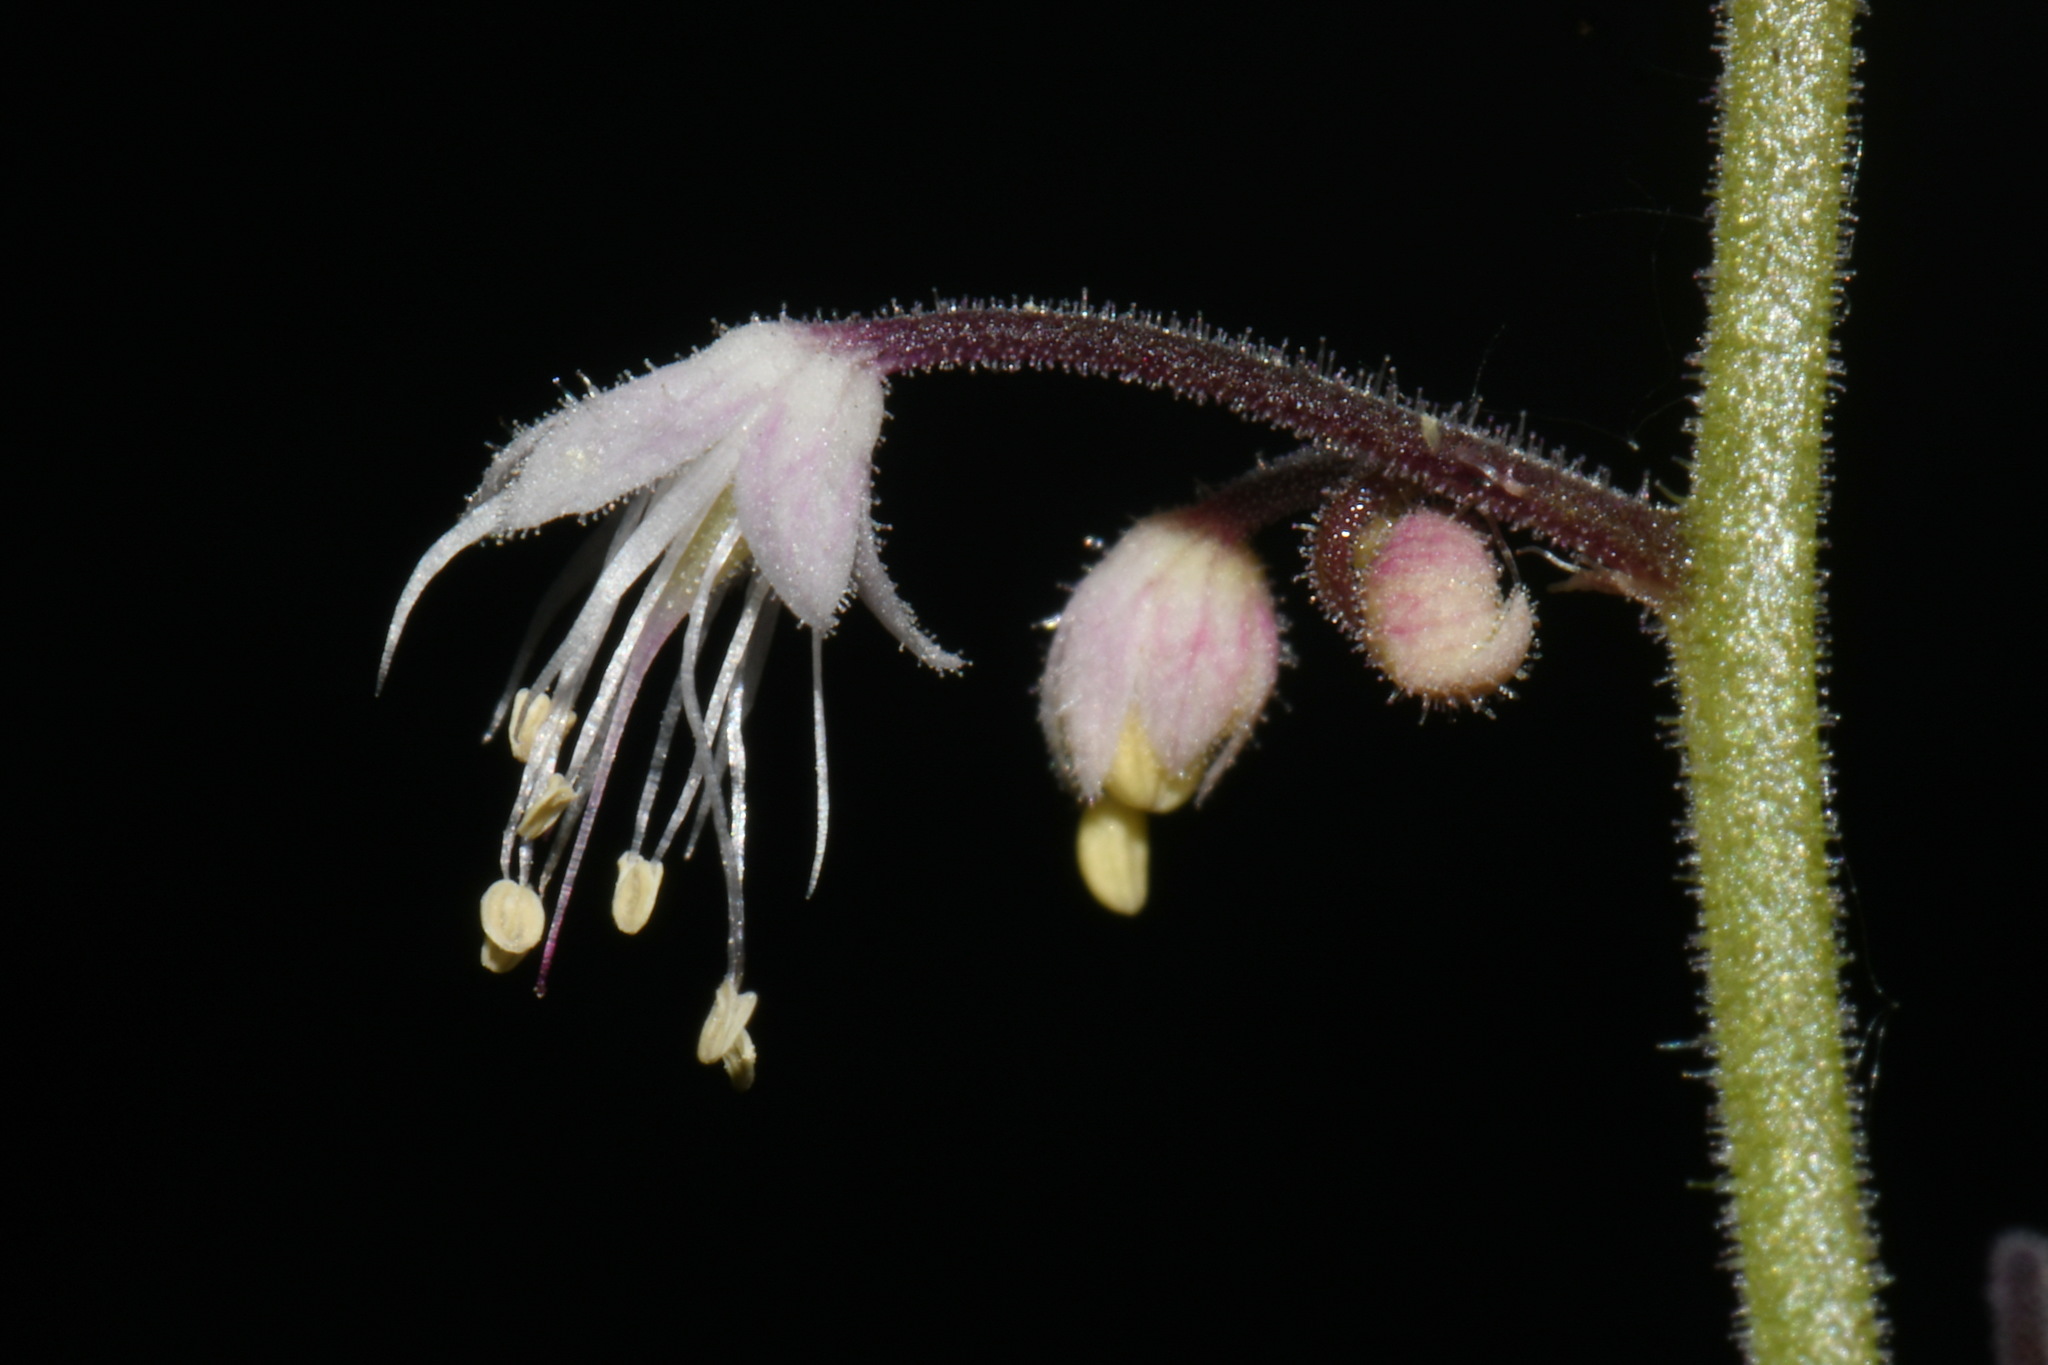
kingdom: Plantae
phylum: Tracheophyta
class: Magnoliopsida
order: Saxifragales
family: Saxifragaceae
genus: Tiarella
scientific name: Tiarella trifoliata
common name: Sugar-scoop
